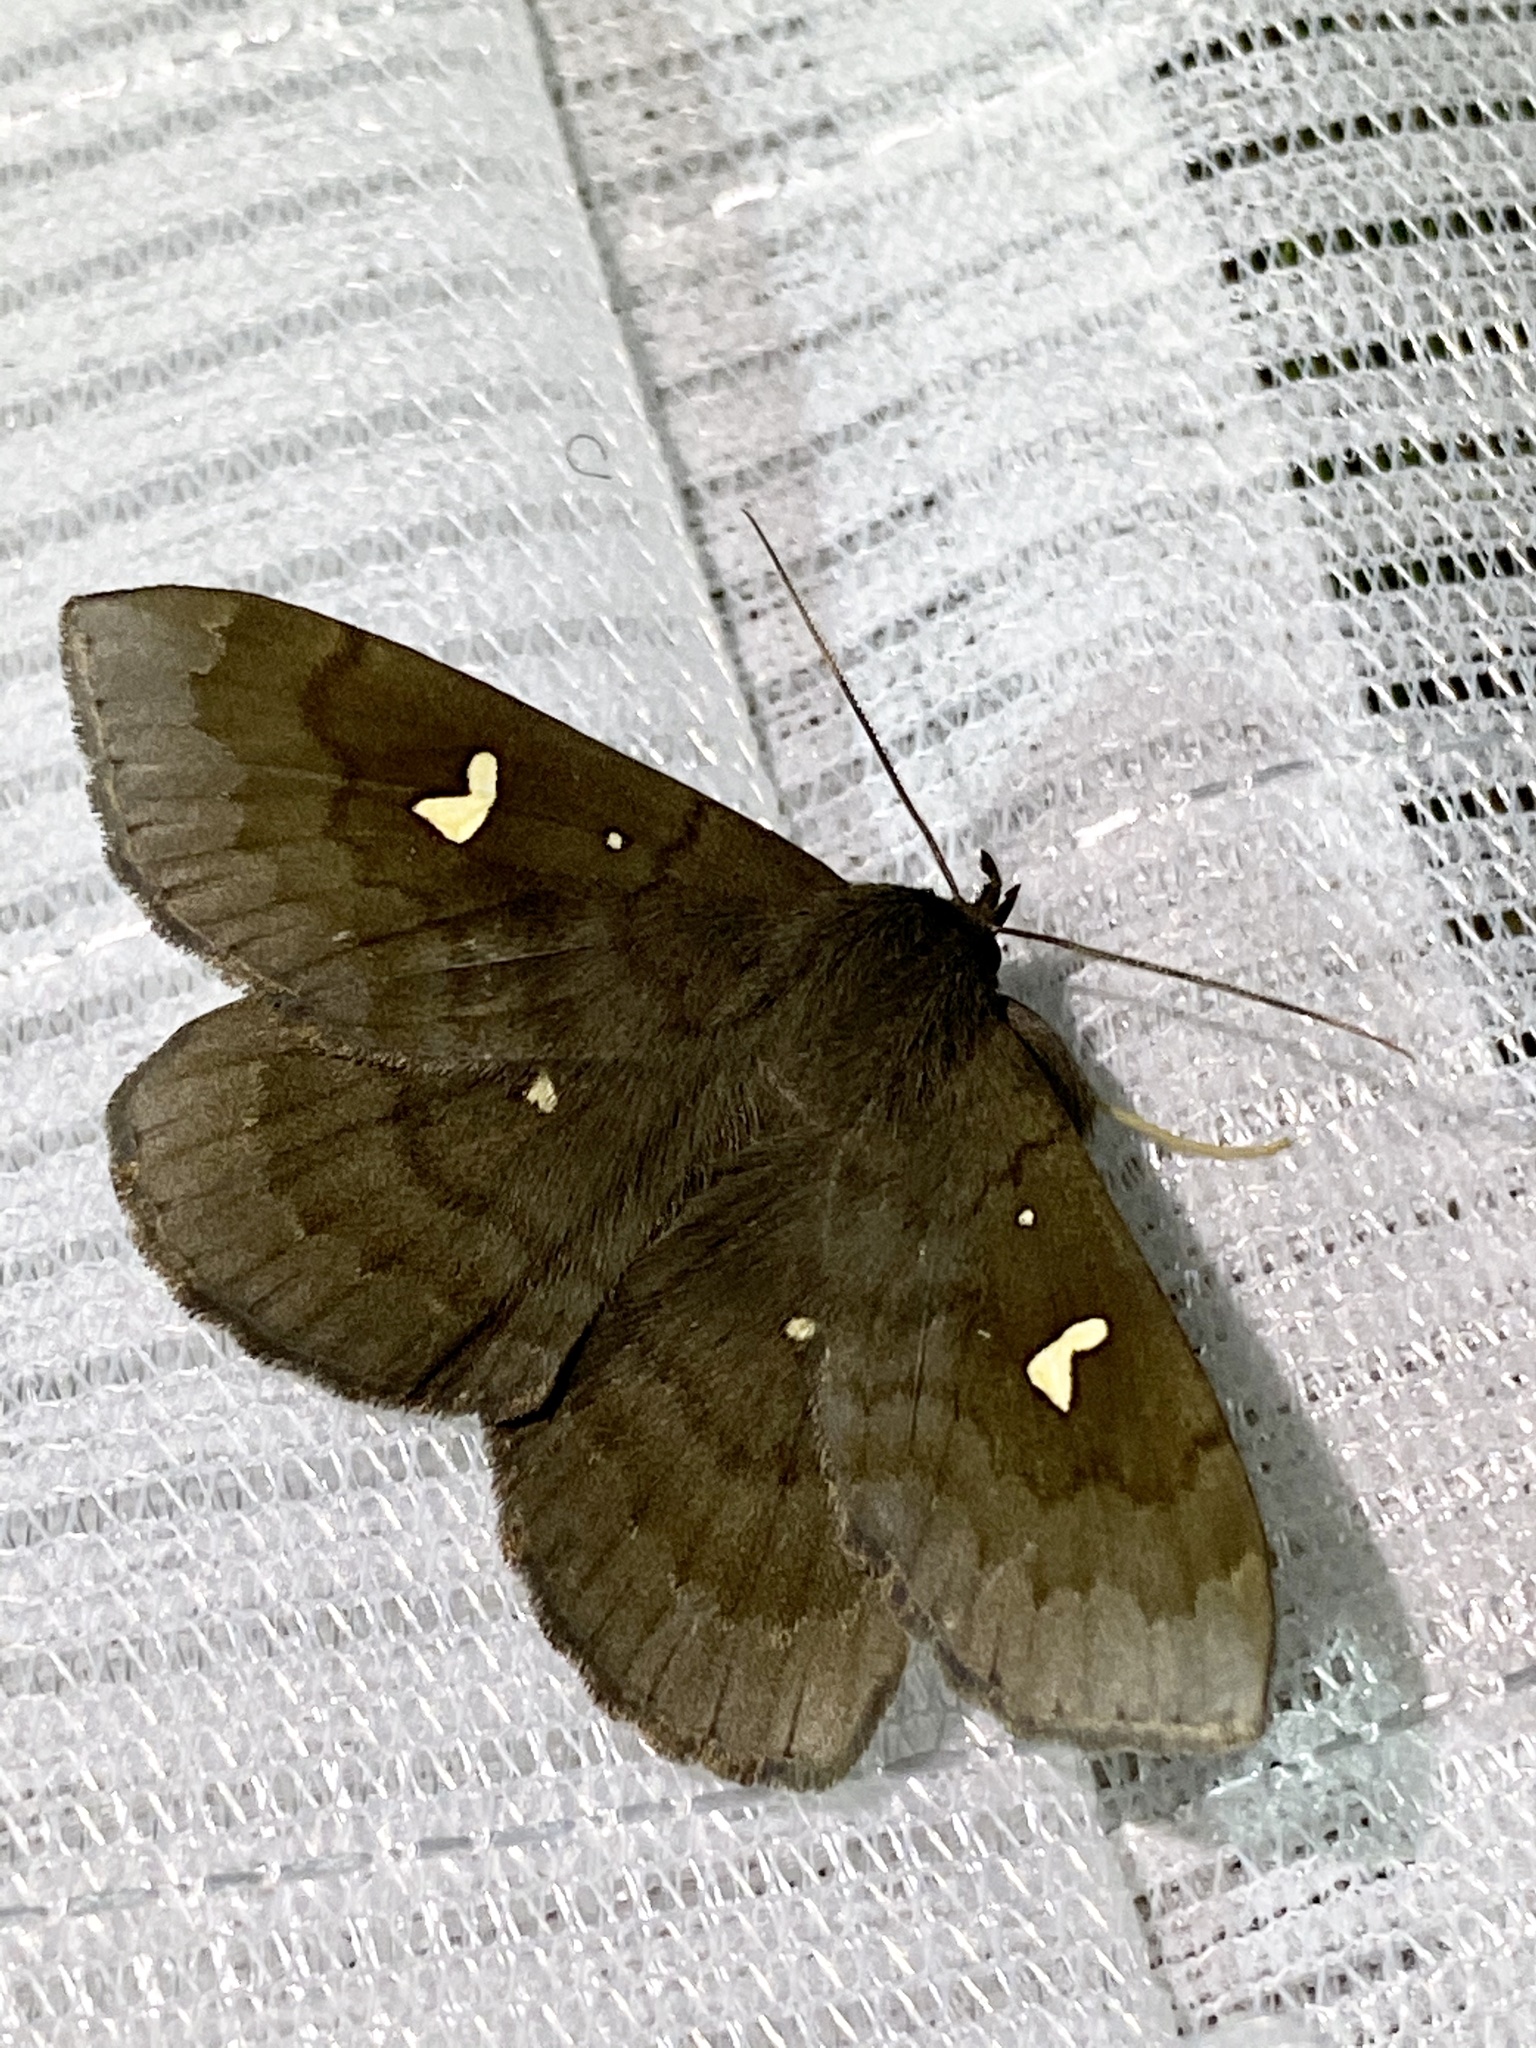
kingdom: Animalia
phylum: Arthropoda
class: Insecta
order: Lepidoptera
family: Erebidae
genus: Edessena
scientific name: Edessena hamada
